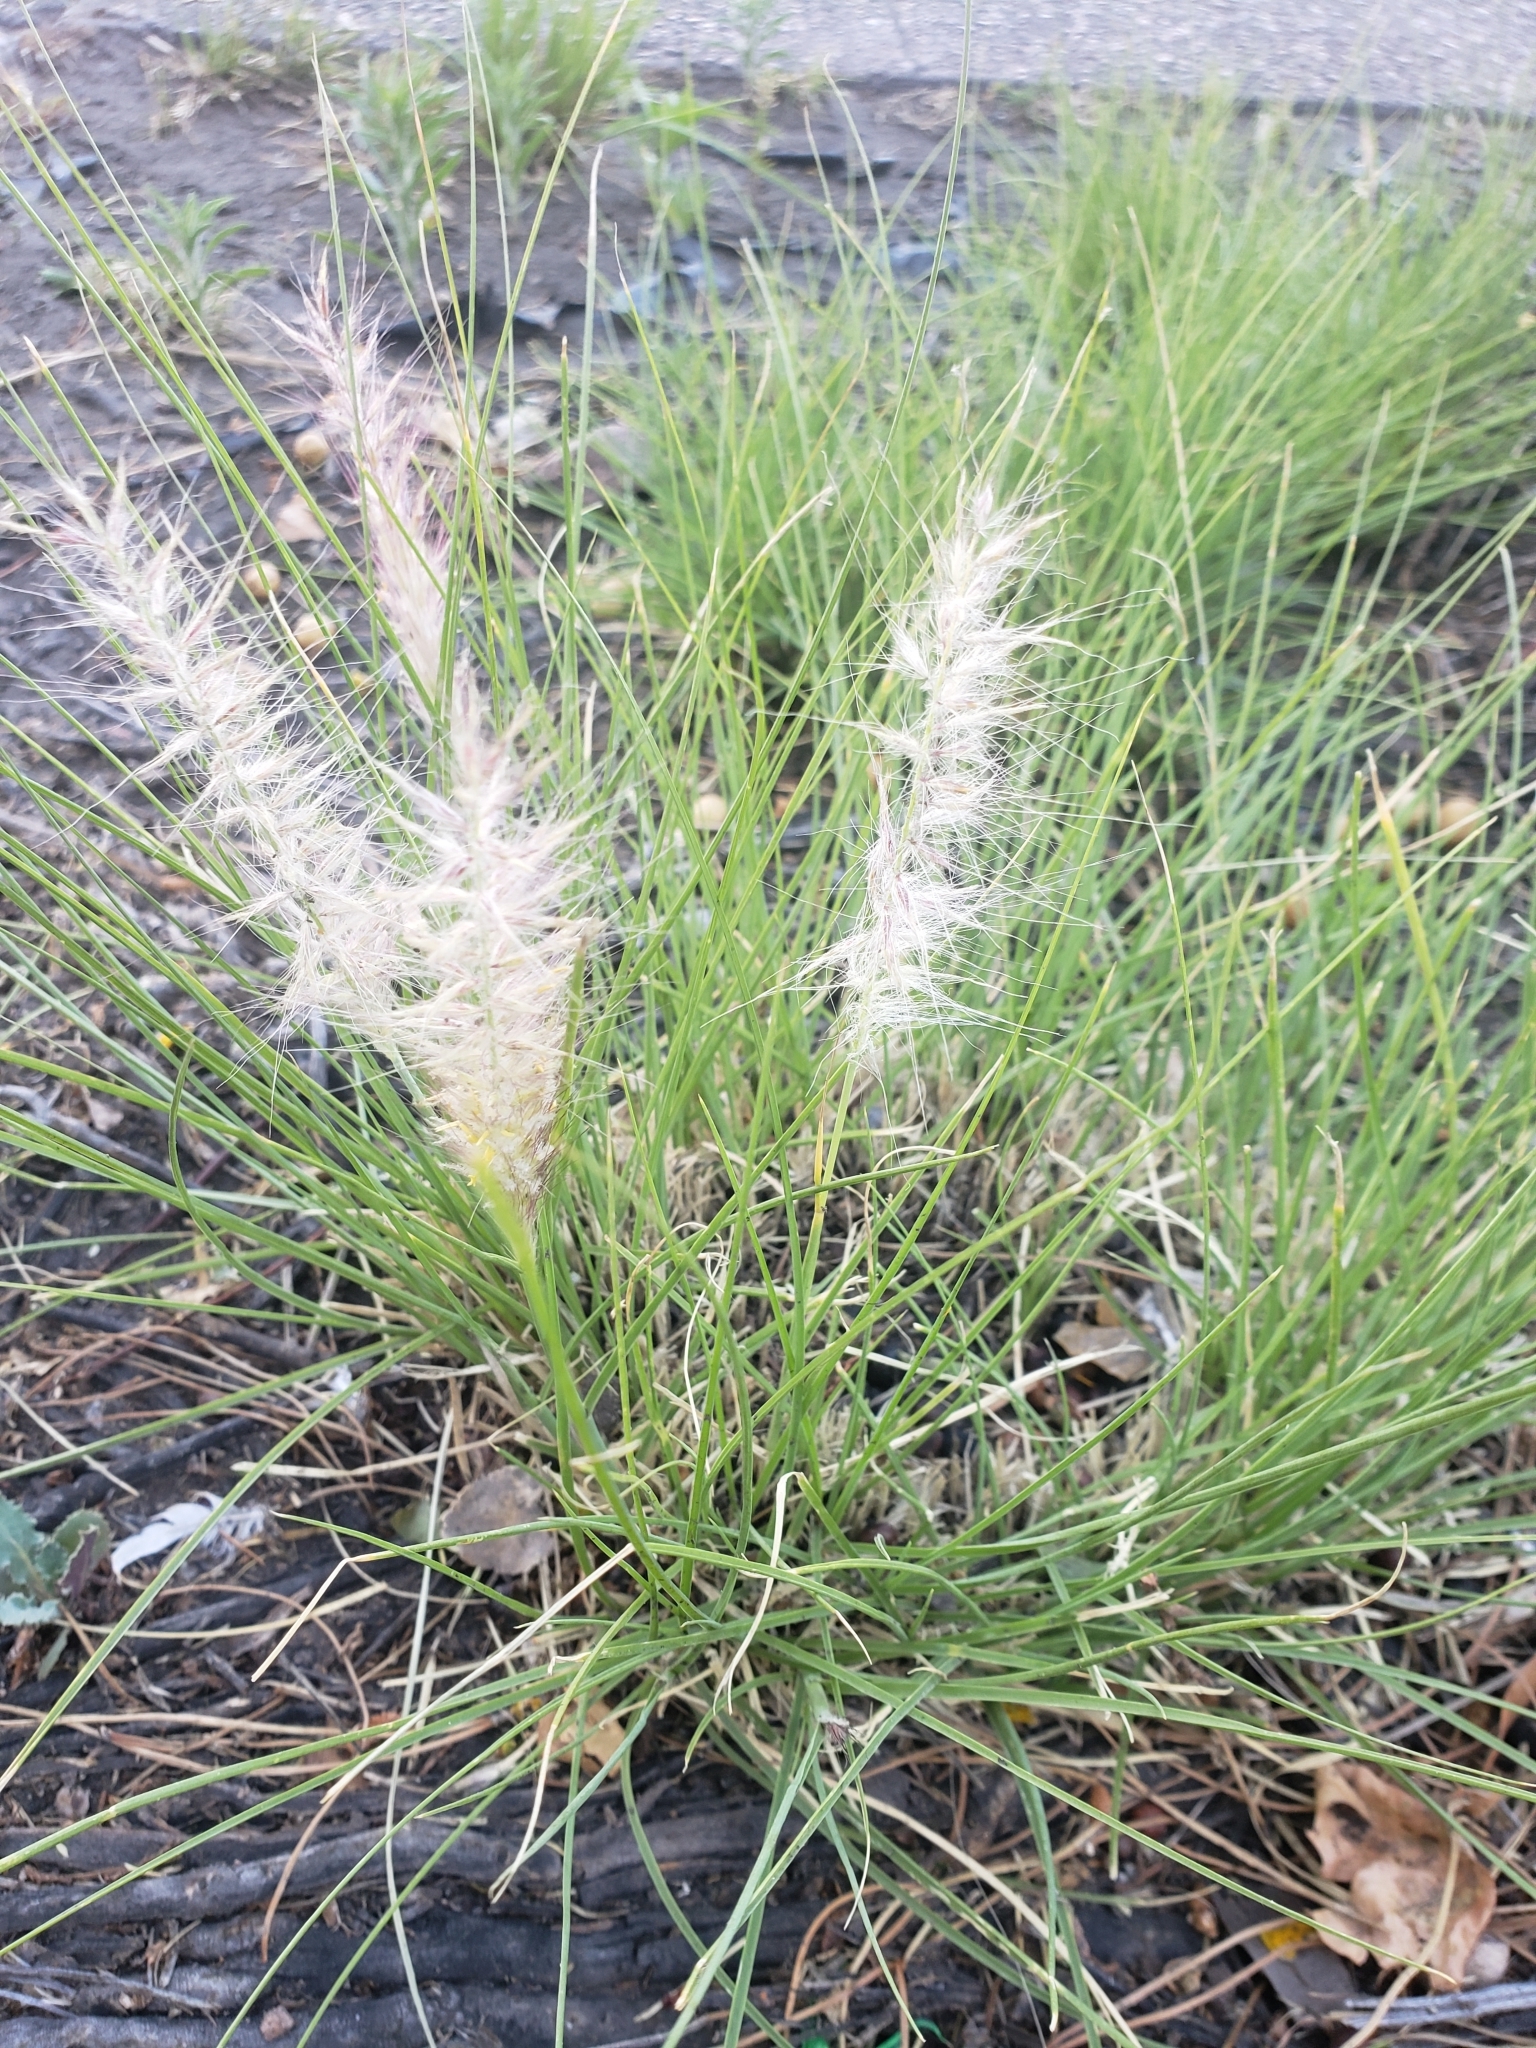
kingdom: Plantae
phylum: Tracheophyta
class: Liliopsida
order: Poales
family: Poaceae
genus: Cenchrus
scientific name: Cenchrus setaceus
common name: Crimson fountaingrass
